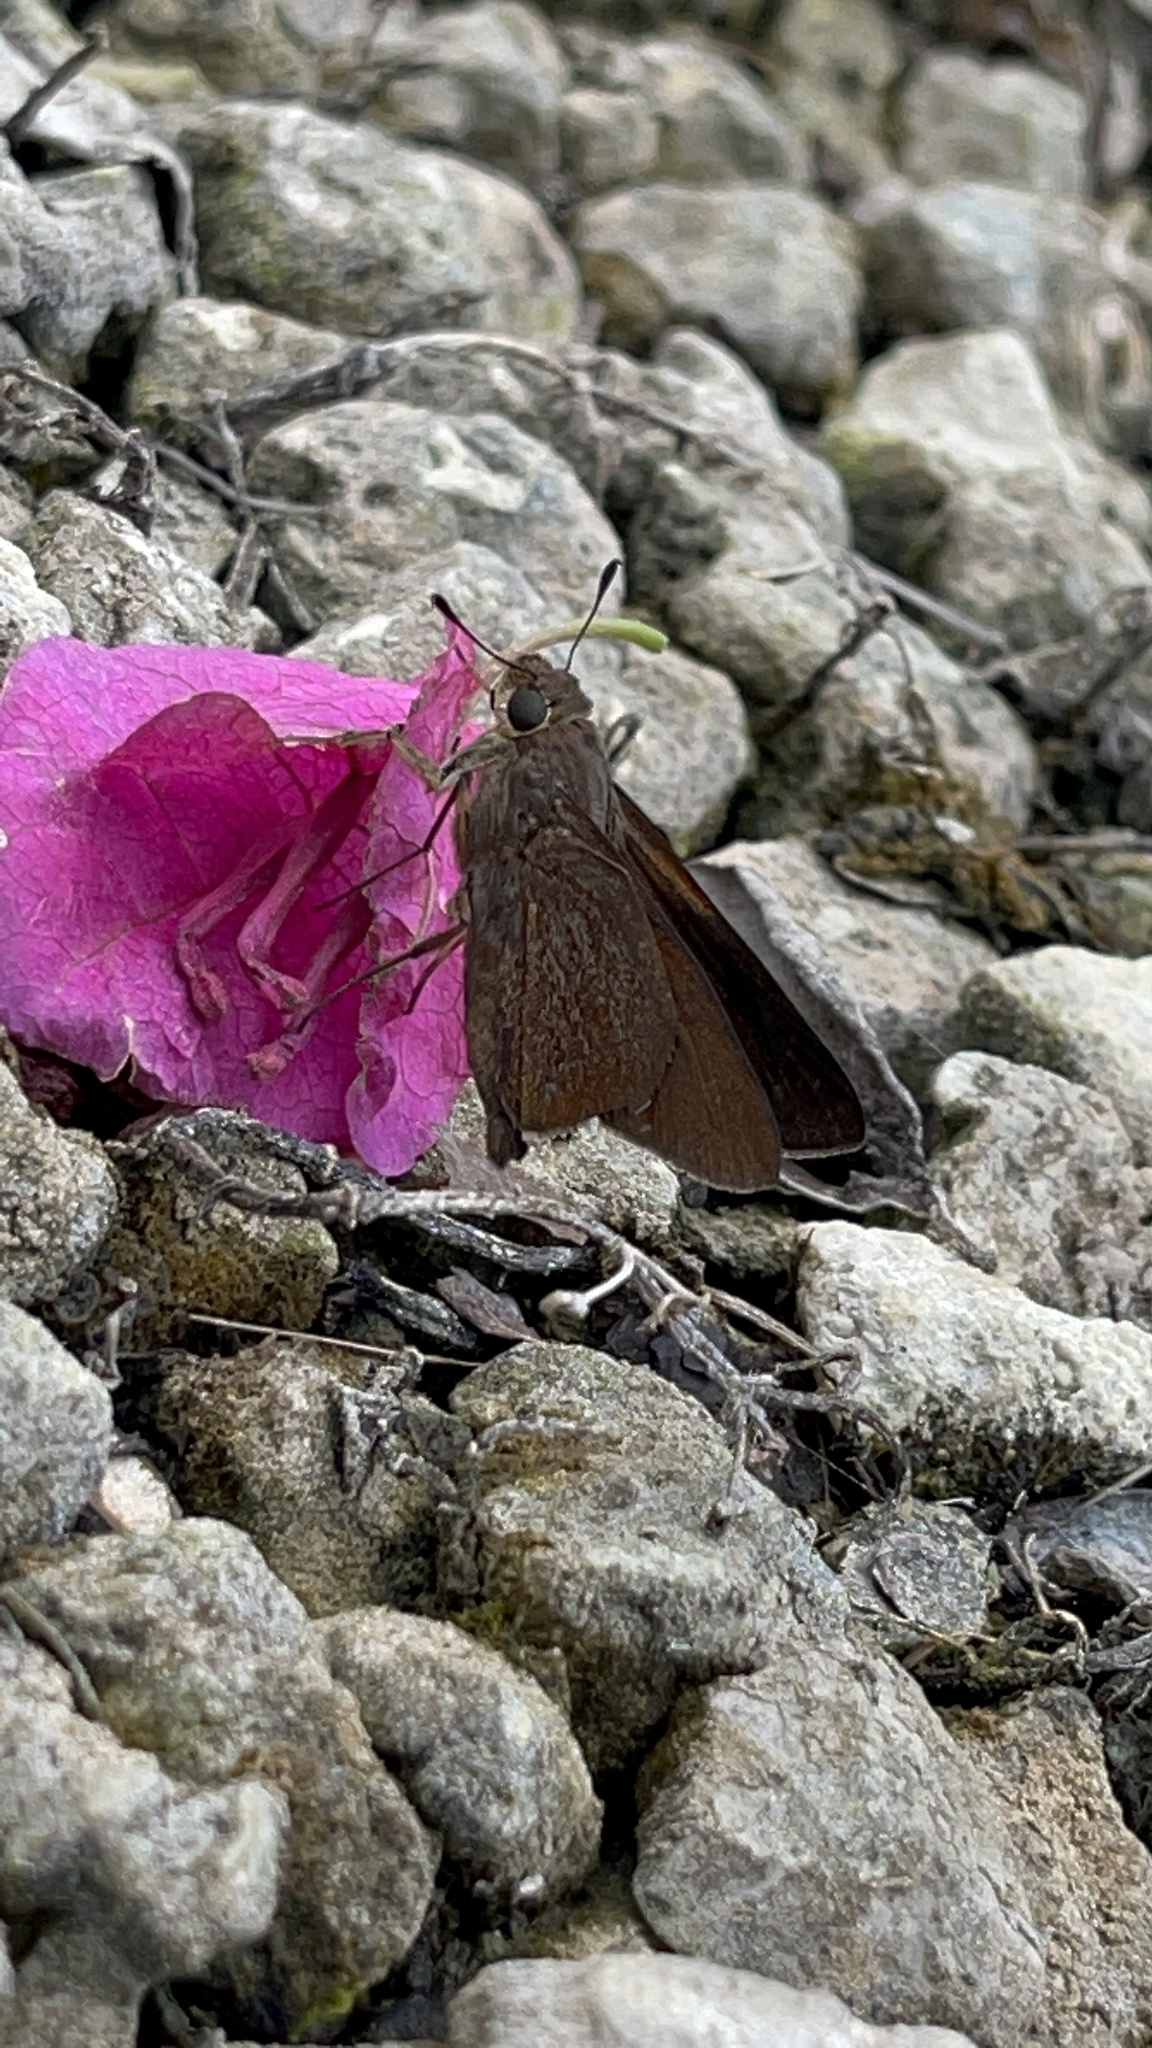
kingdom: Animalia
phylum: Arthropoda
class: Insecta
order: Lepidoptera
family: Hesperiidae
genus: Asbolis
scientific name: Asbolis capucinus
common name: Monk skipper
